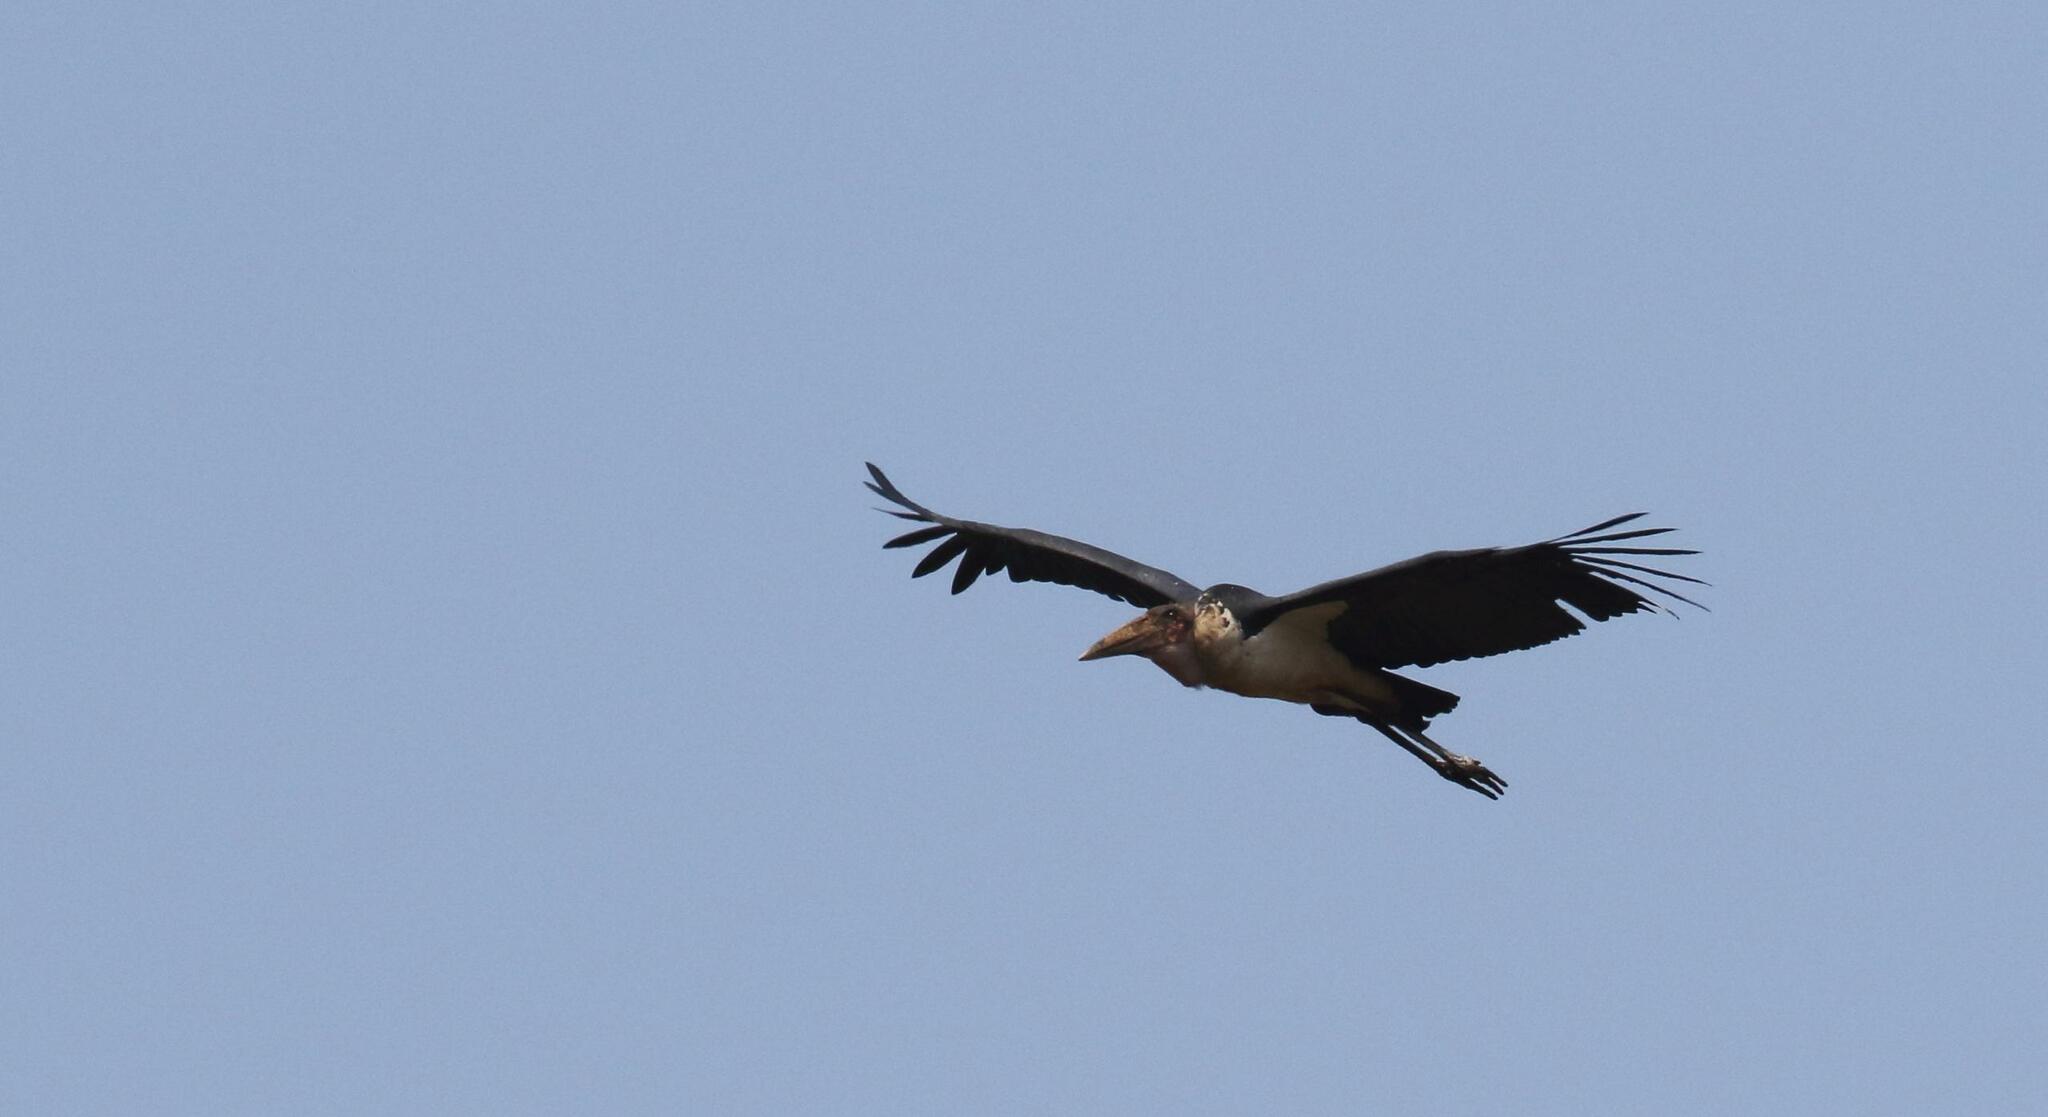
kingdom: Animalia
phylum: Chordata
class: Aves
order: Ciconiiformes
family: Ciconiidae
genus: Leptoptilos
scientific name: Leptoptilos crumenifer
